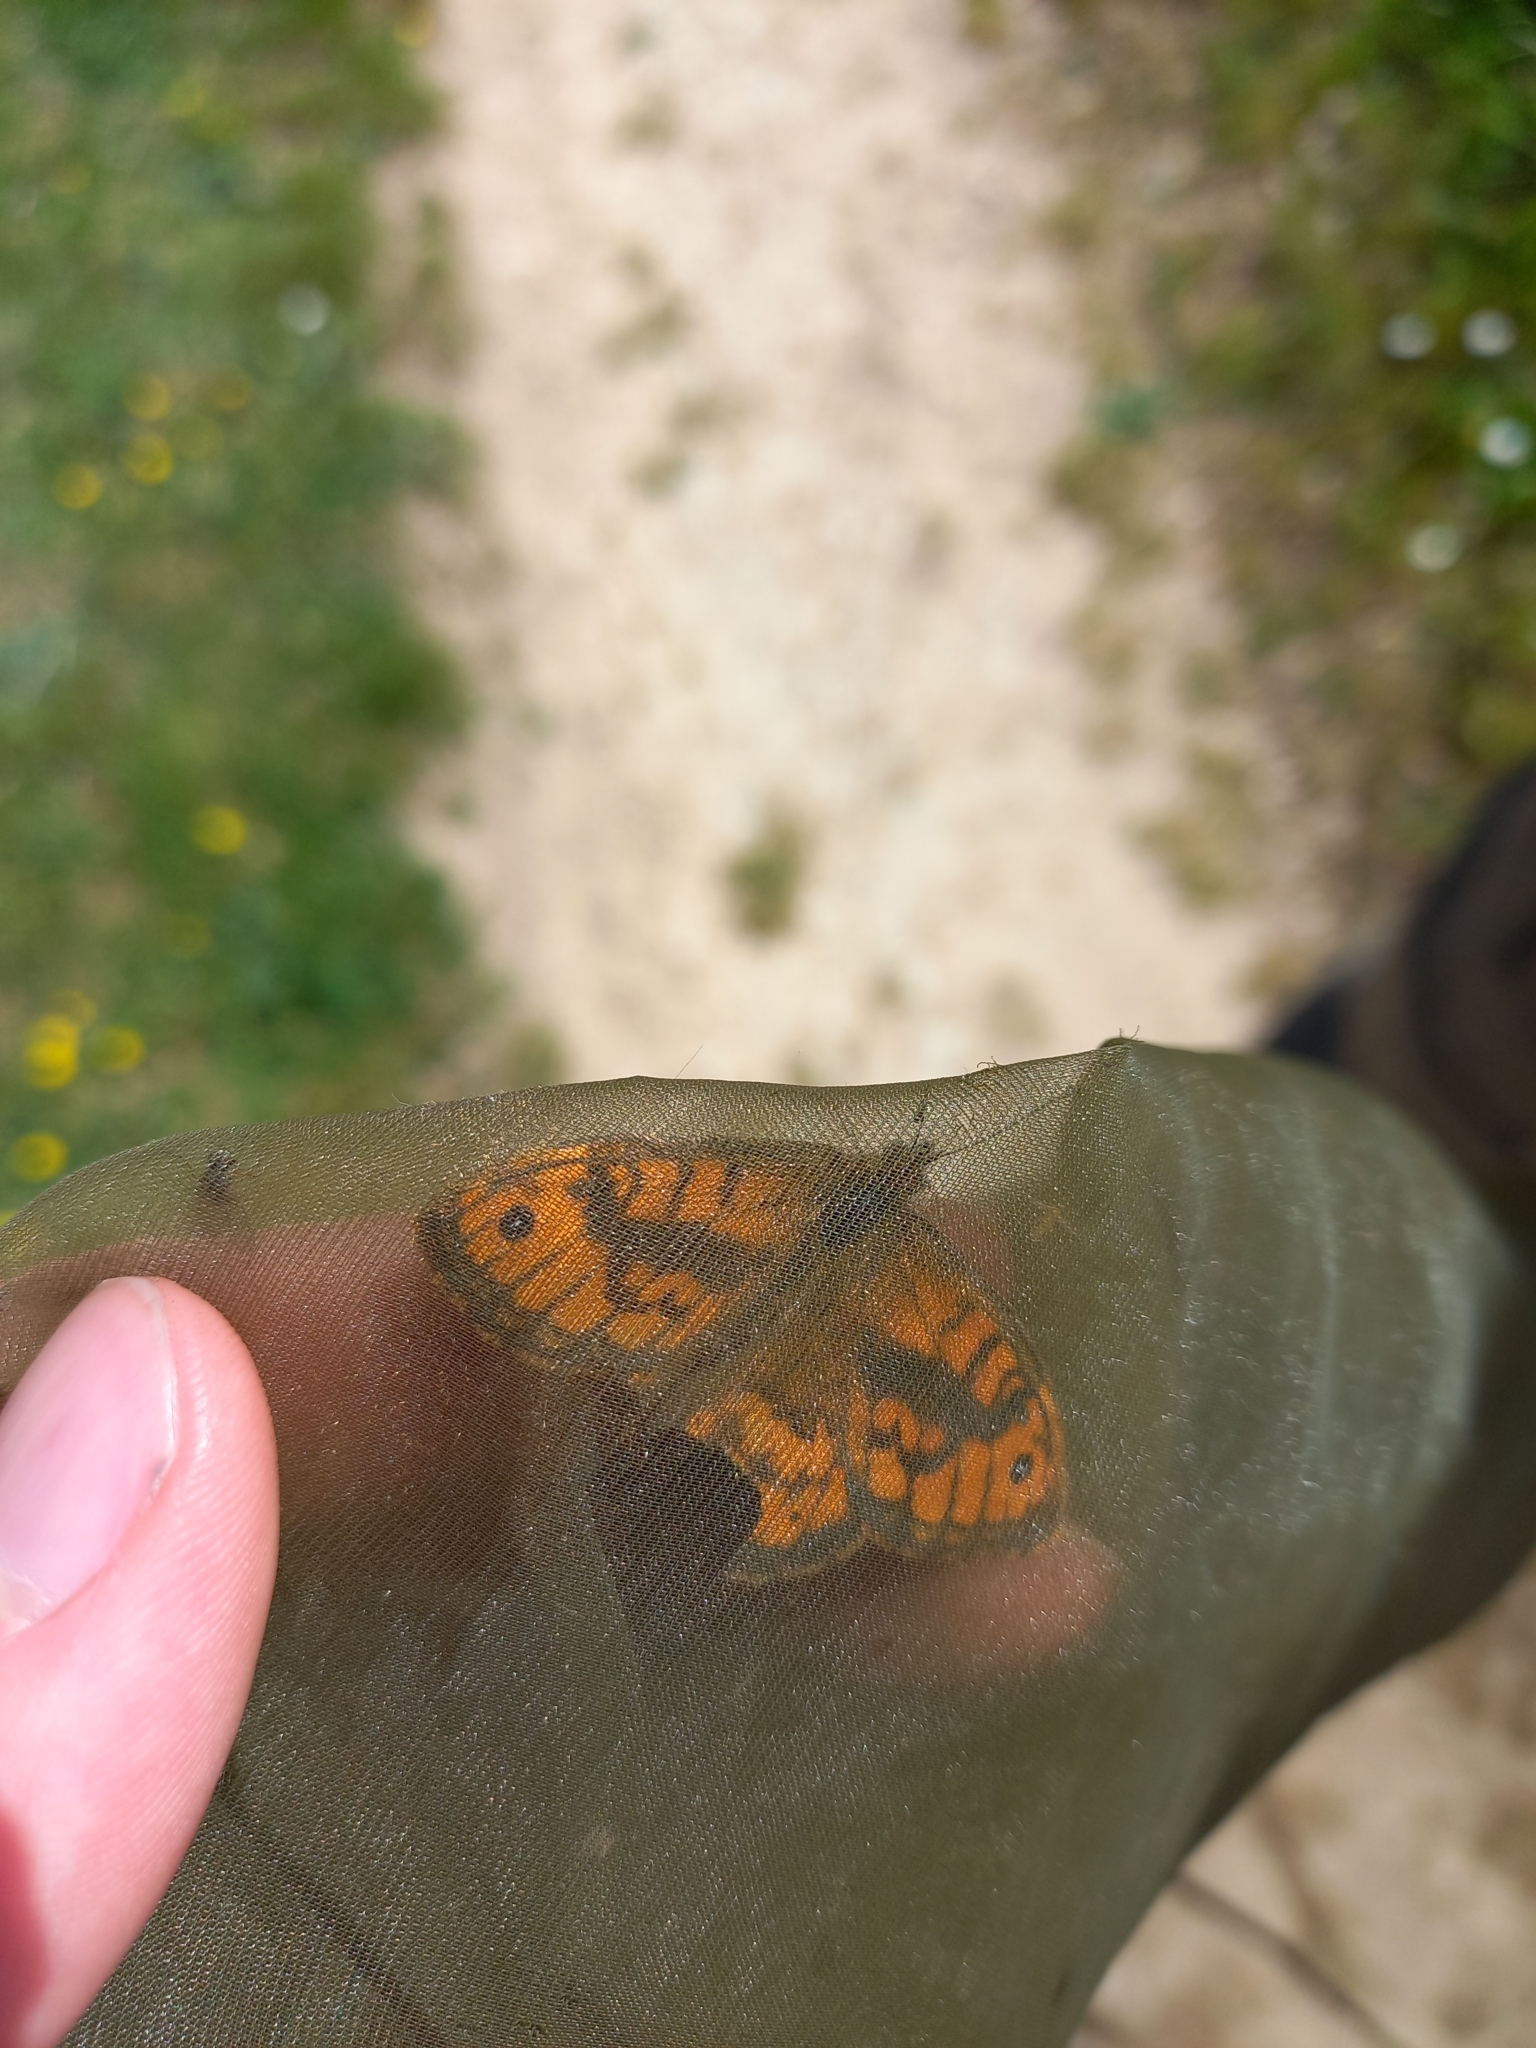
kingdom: Animalia
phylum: Arthropoda
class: Insecta
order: Lepidoptera
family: Nymphalidae
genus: Pararge
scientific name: Pararge Lasiommata megera
